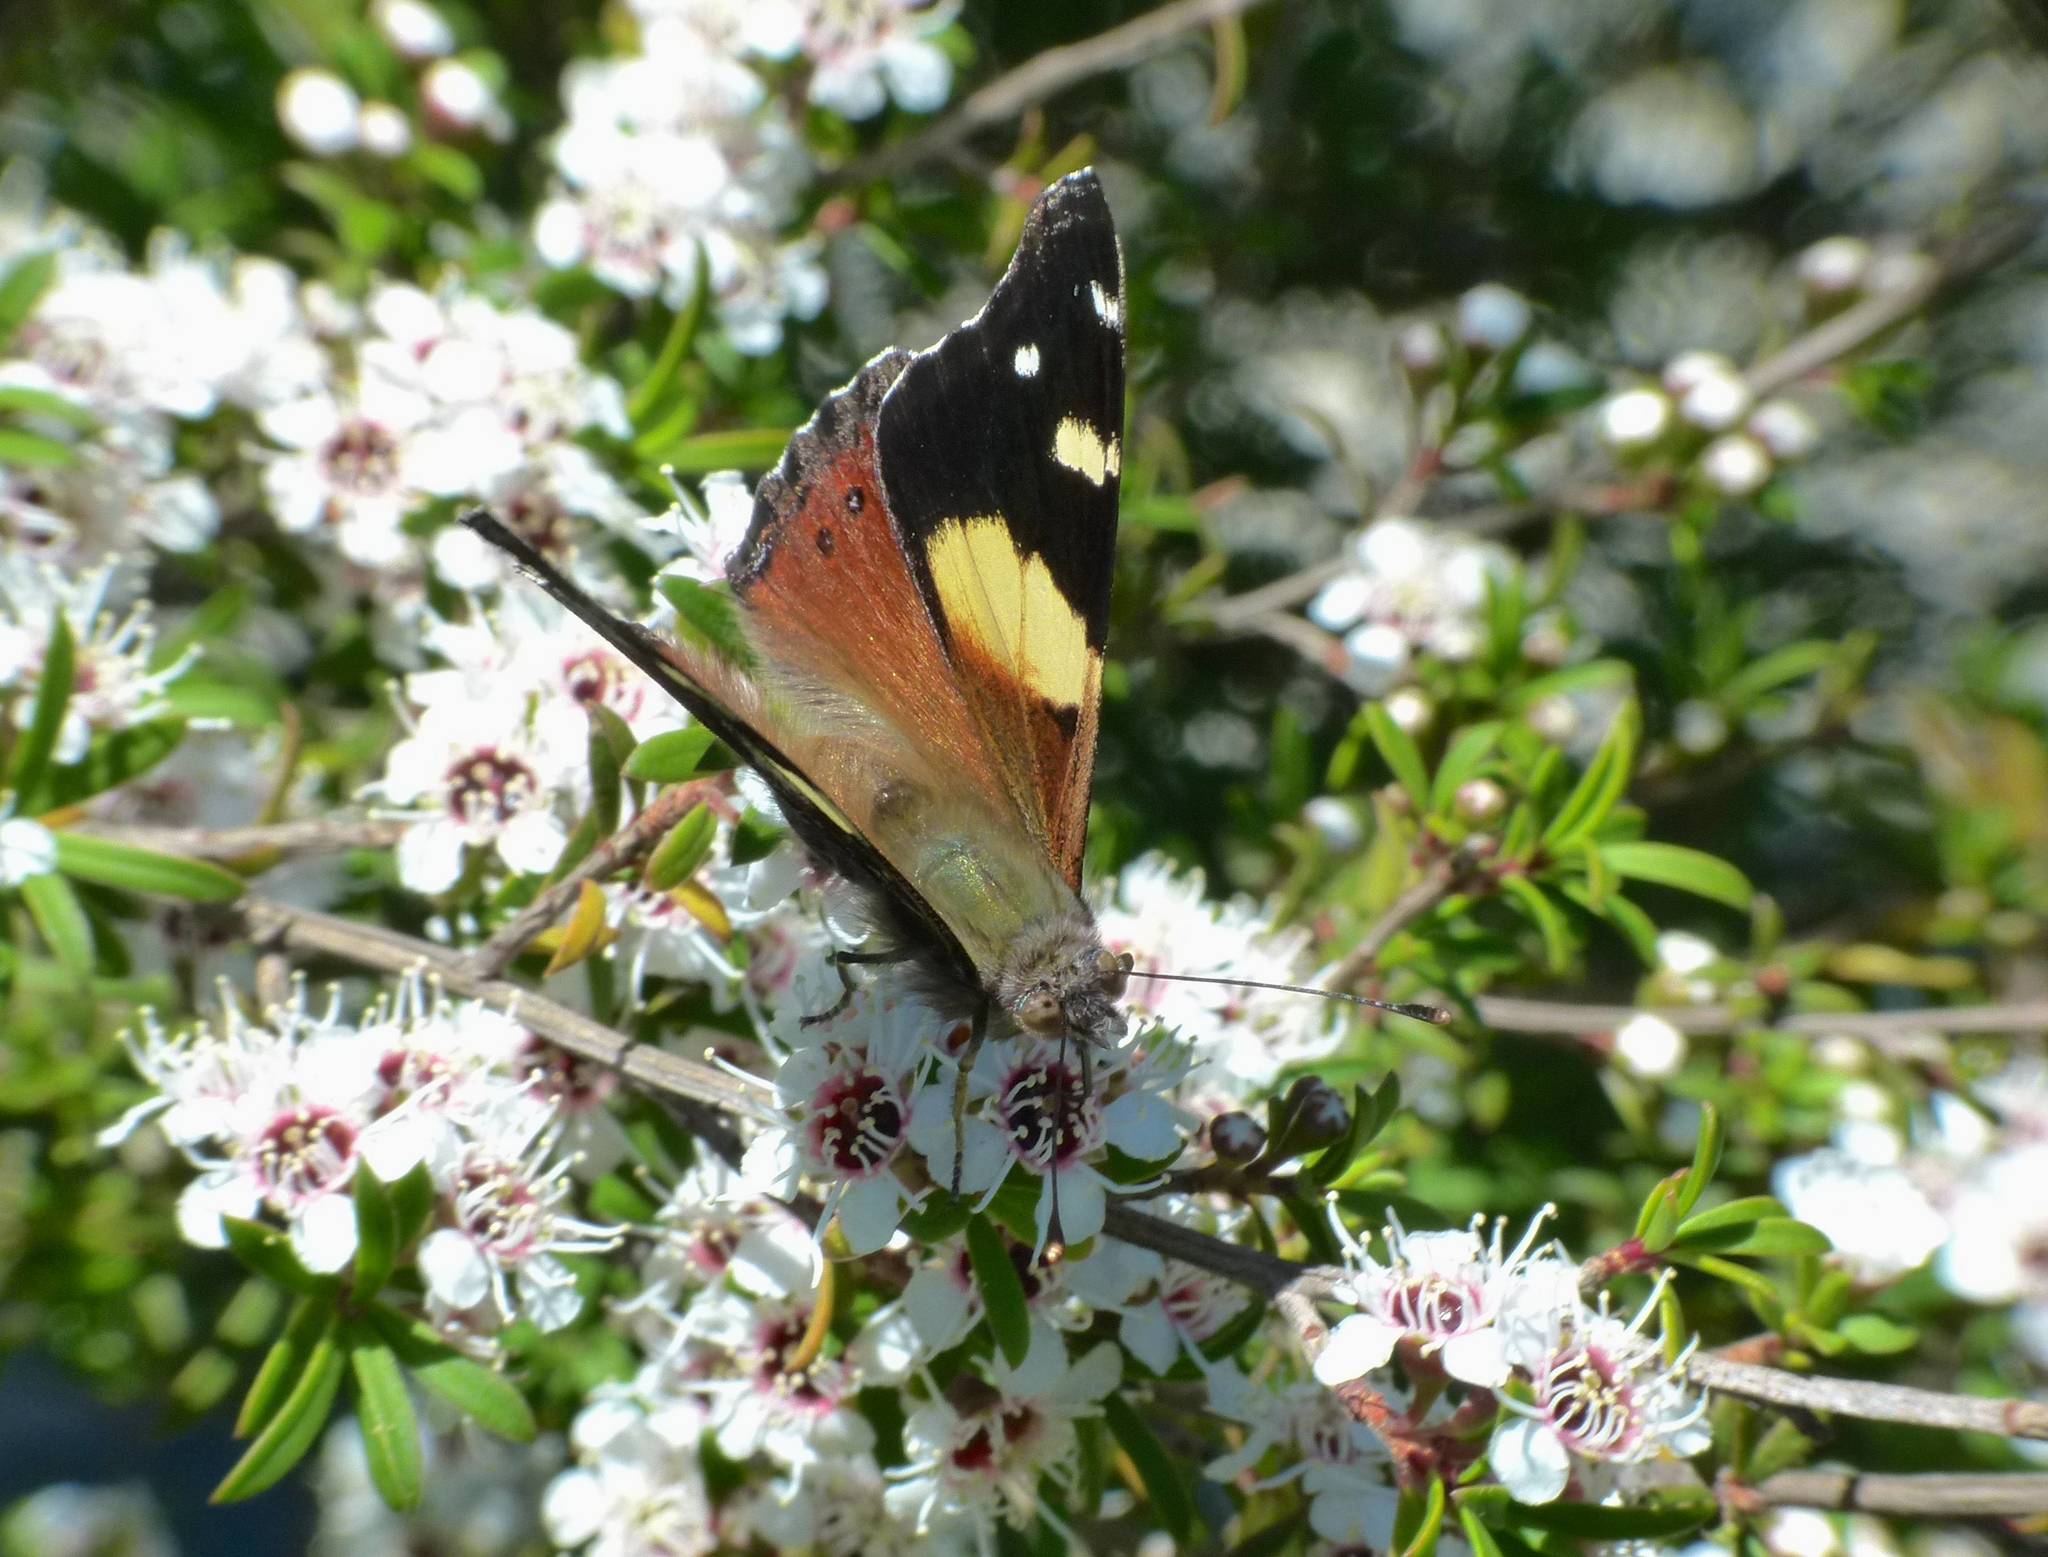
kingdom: Animalia
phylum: Arthropoda
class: Insecta
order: Lepidoptera
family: Nymphalidae
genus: Vanessa
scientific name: Vanessa itea
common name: Yellow admiral
